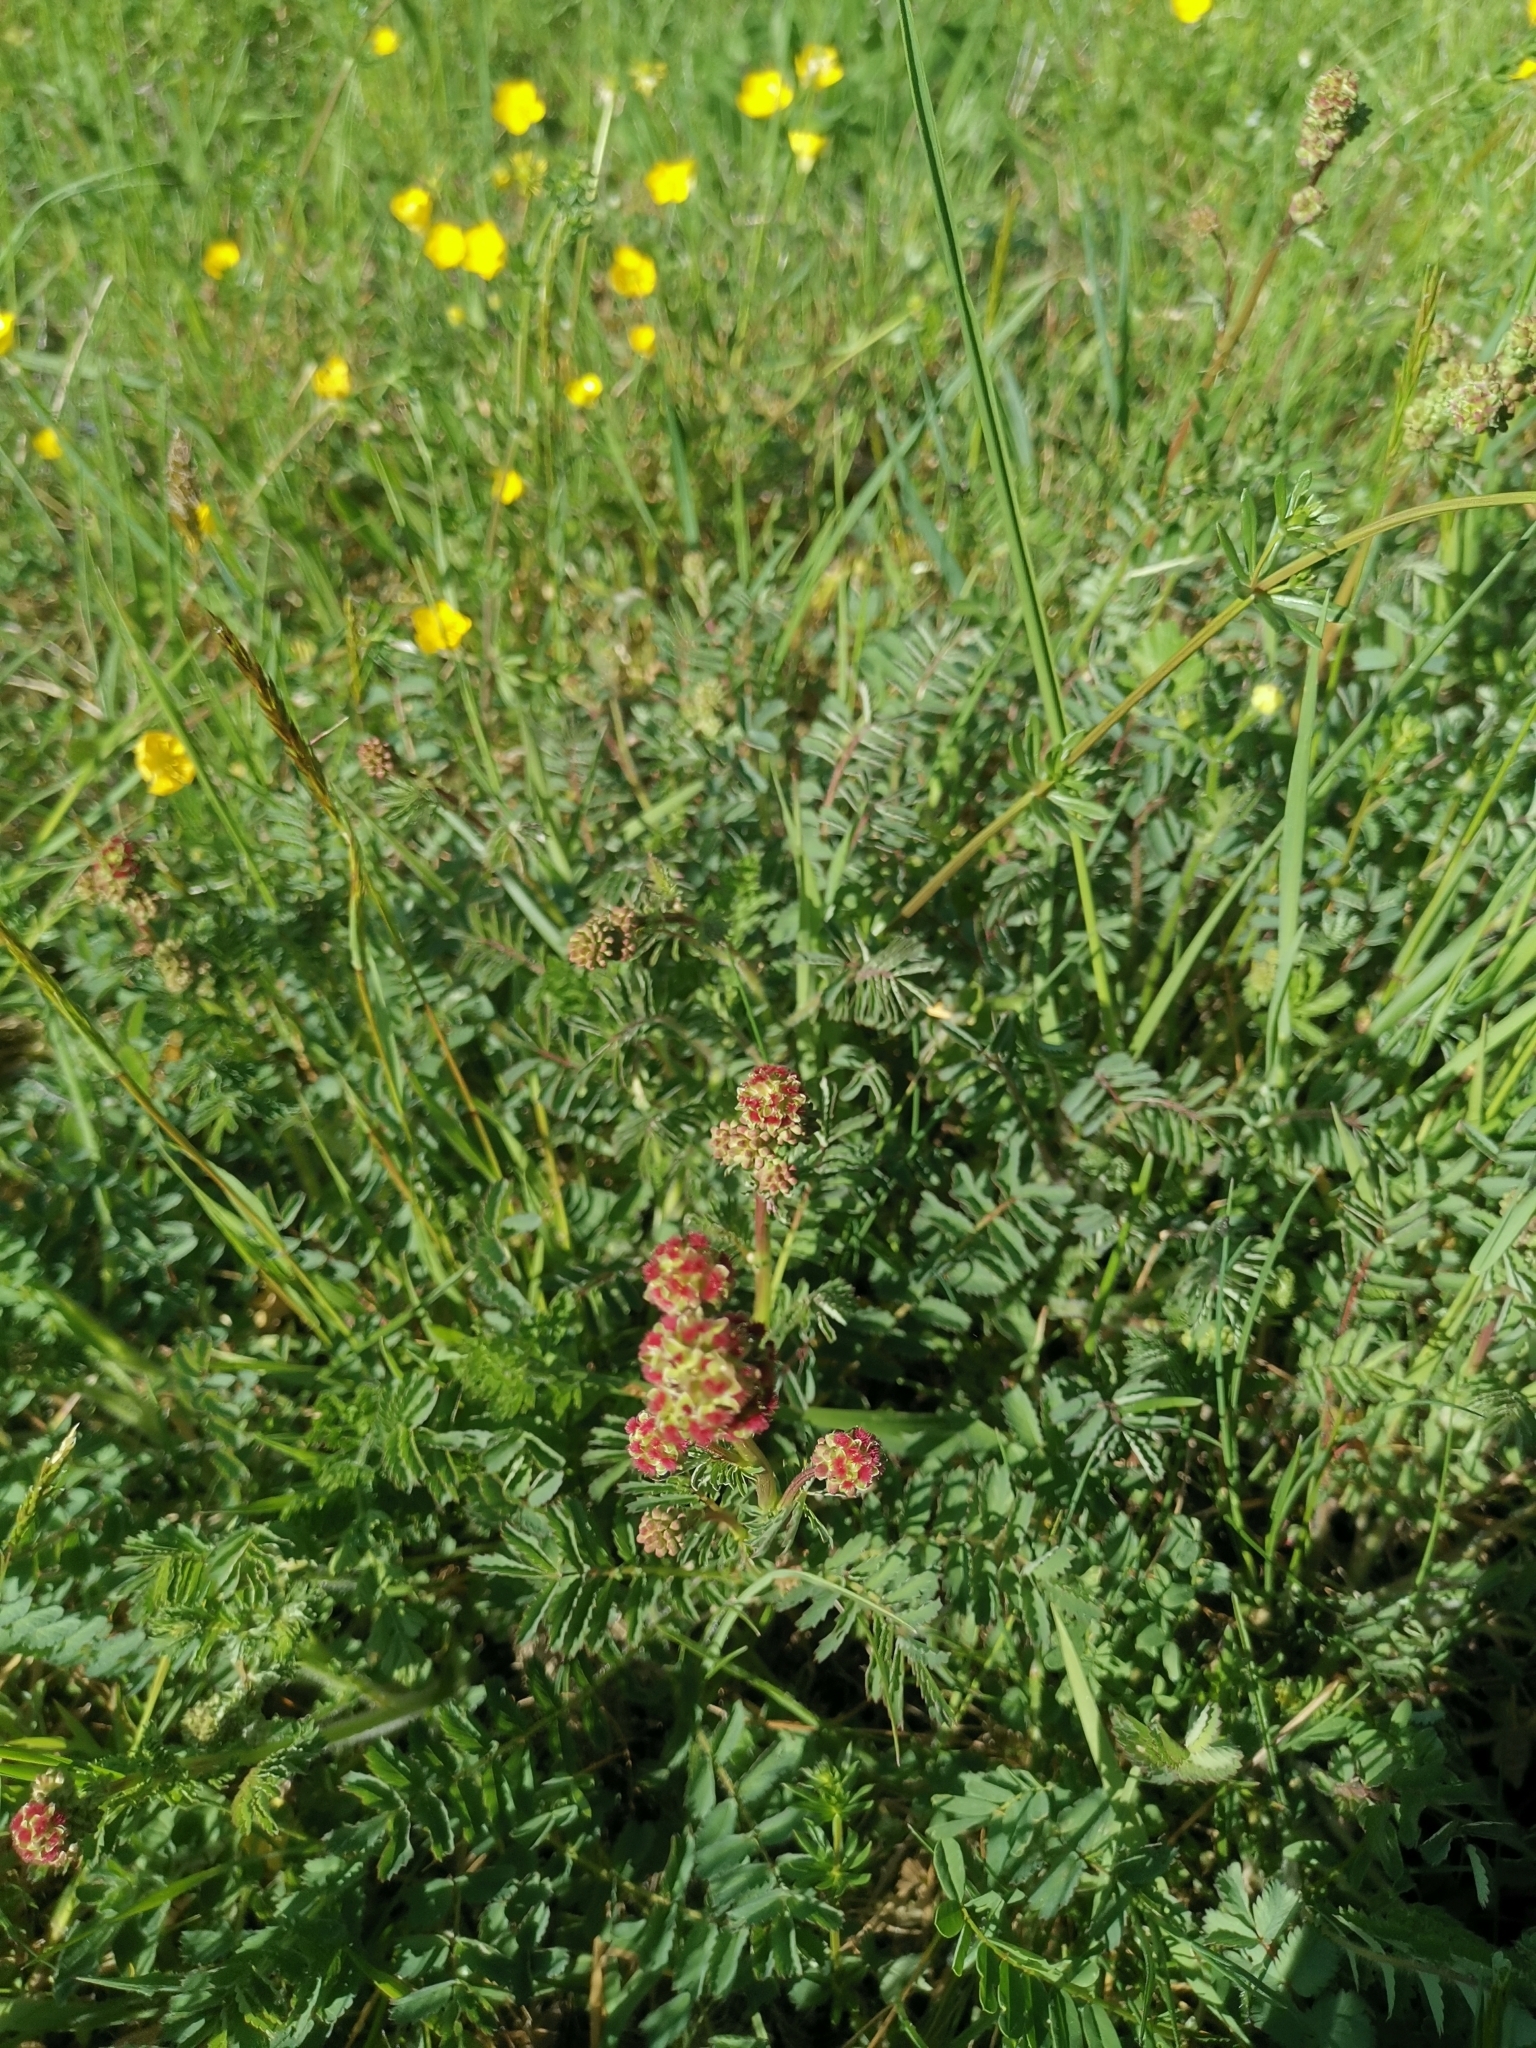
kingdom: Plantae
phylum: Tracheophyta
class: Magnoliopsida
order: Rosales
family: Rosaceae
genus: Sanguisorba
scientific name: Sanguisorba officinalis
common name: Great burnet
